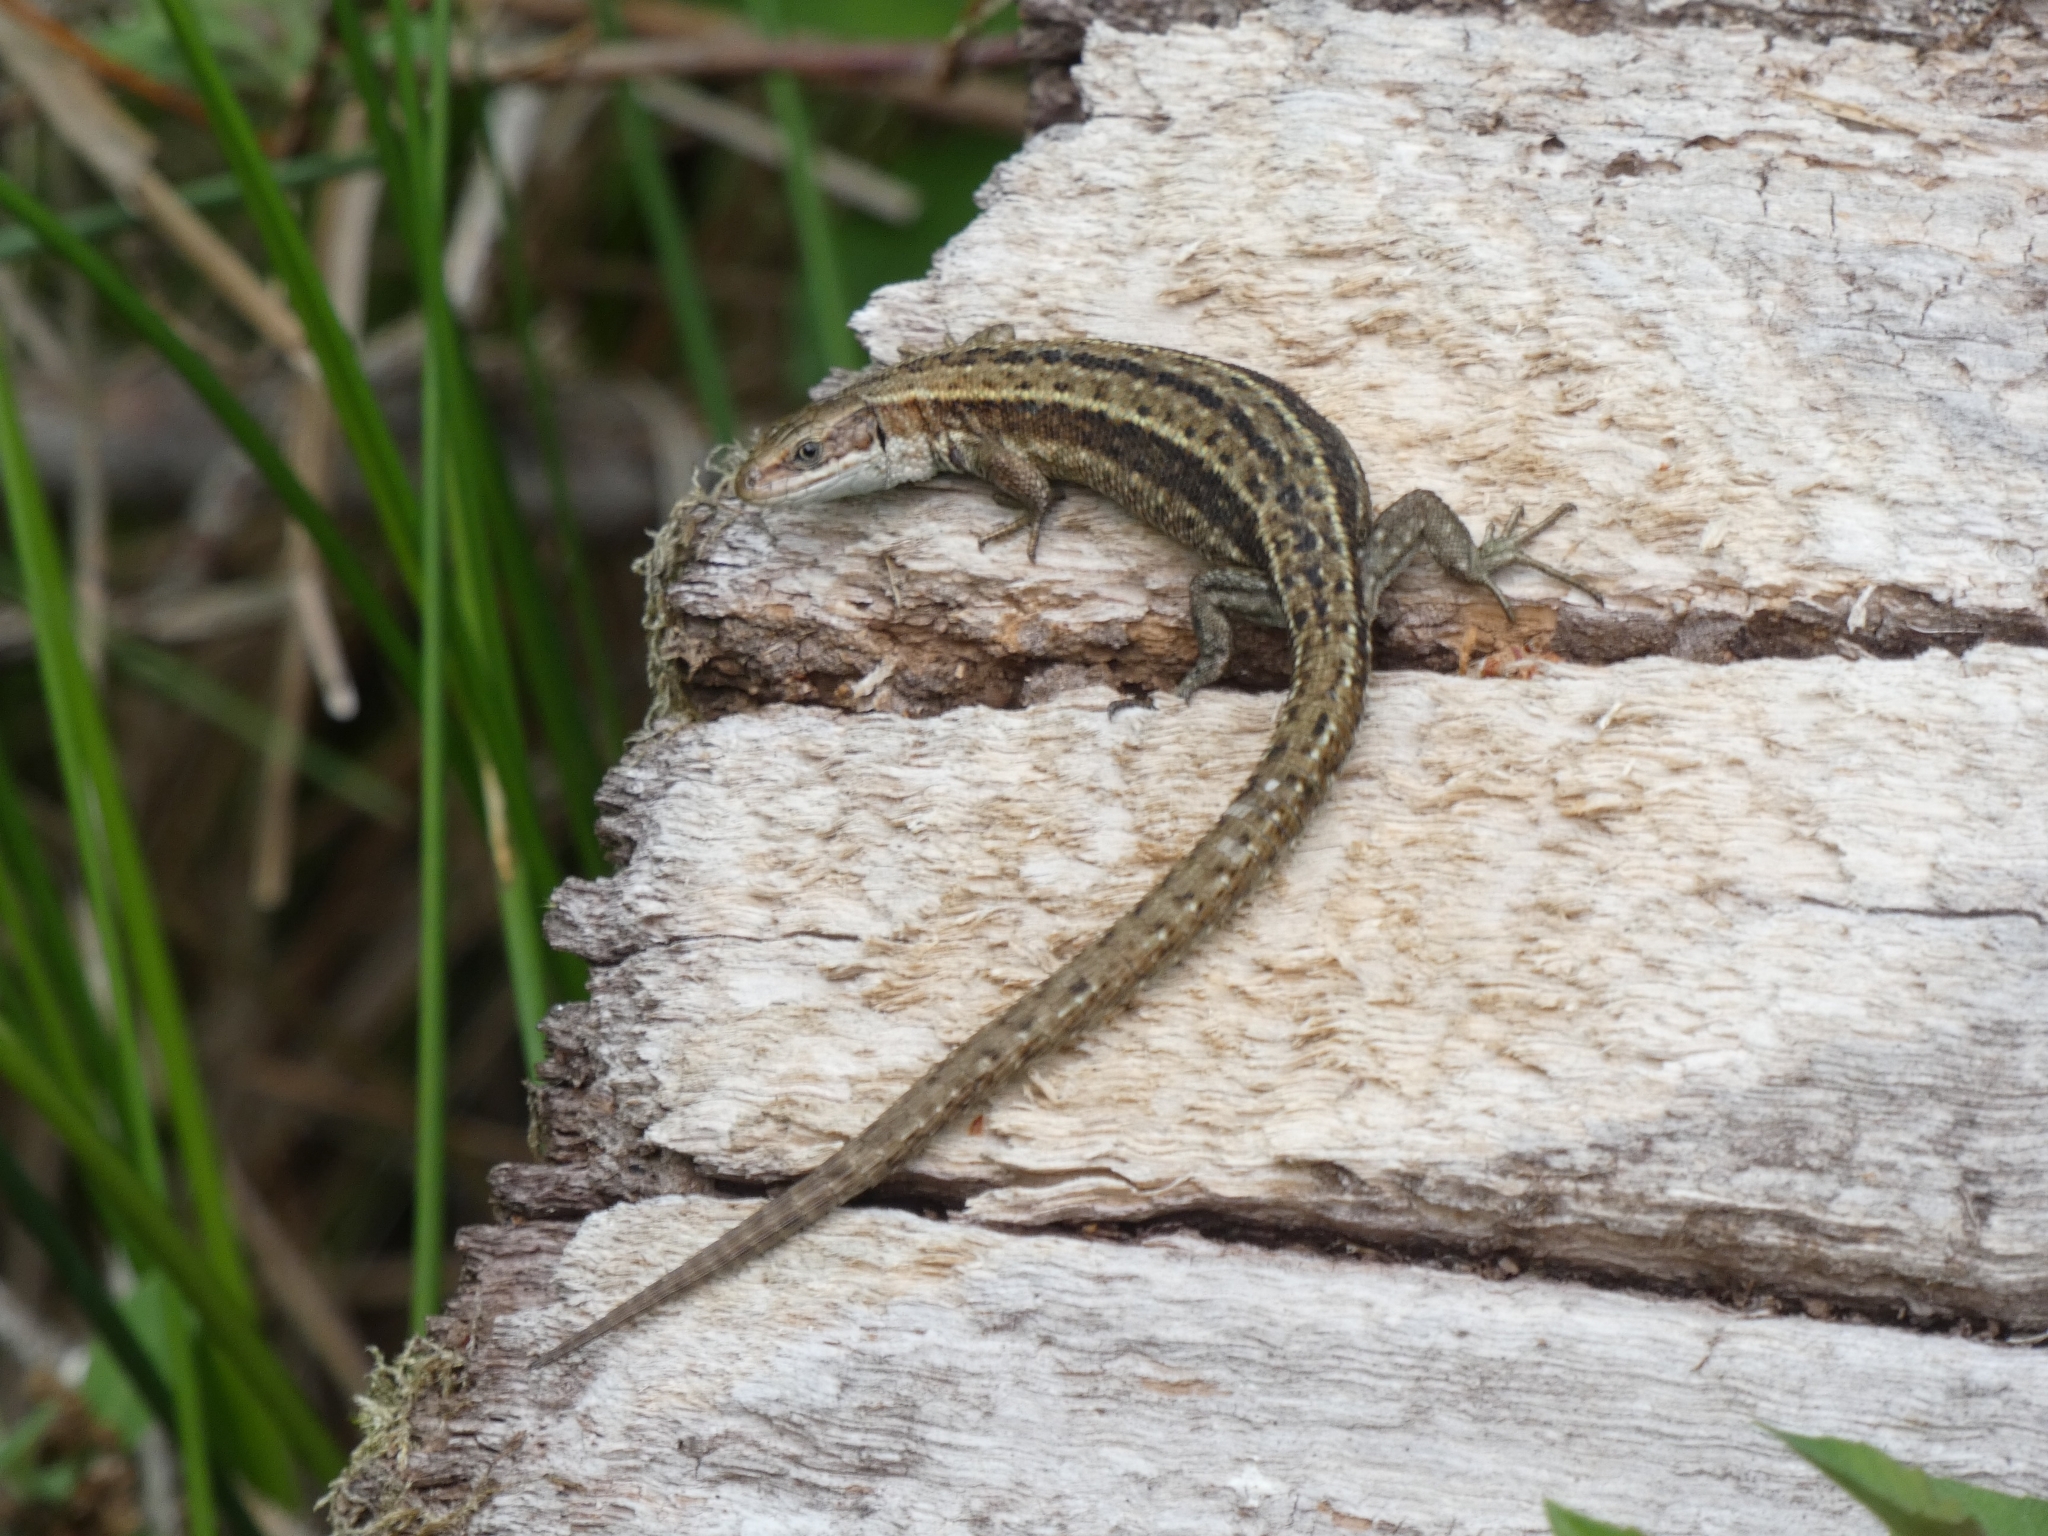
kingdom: Animalia
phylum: Chordata
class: Squamata
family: Lacertidae
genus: Zootoca
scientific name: Zootoca vivipara
